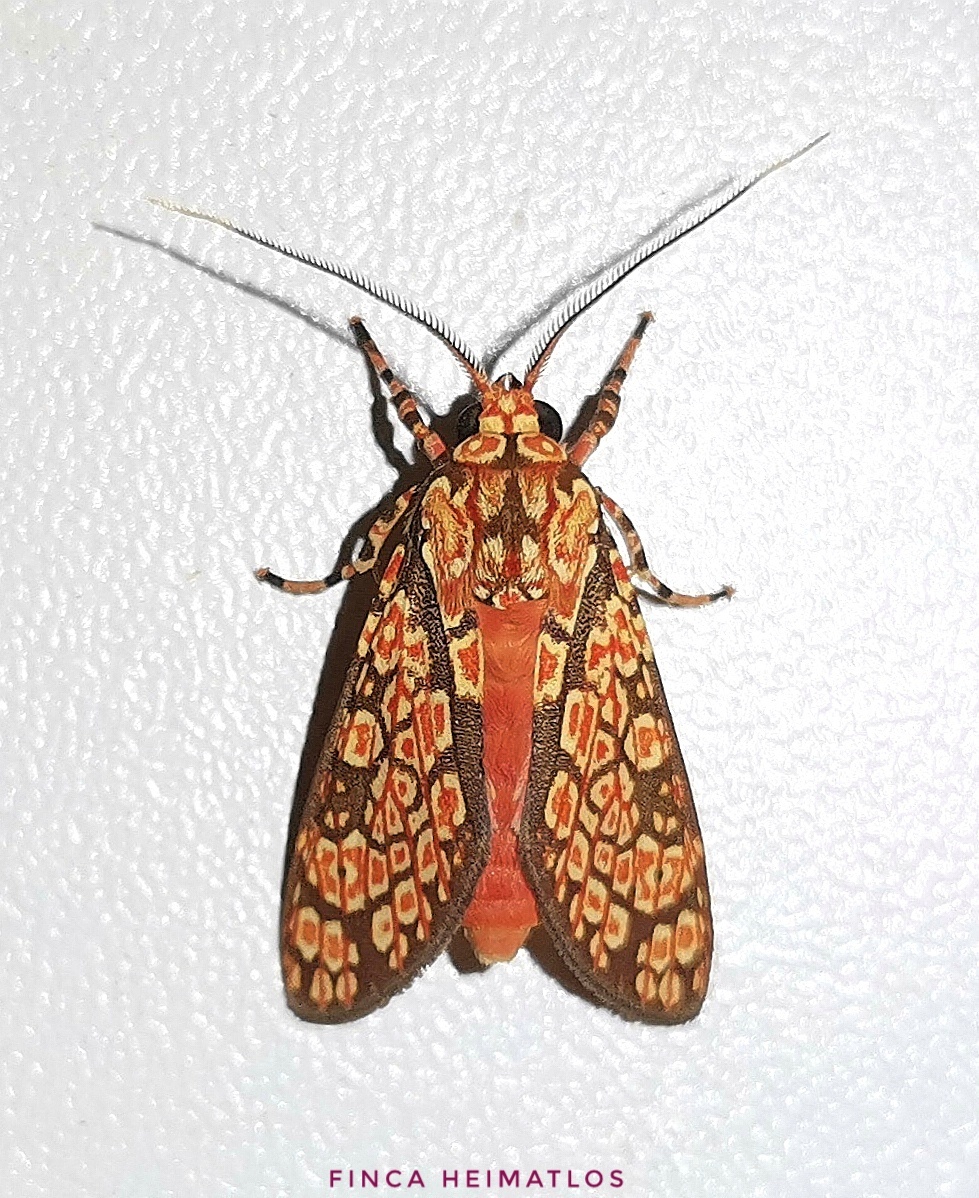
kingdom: Animalia
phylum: Arthropoda
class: Insecta
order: Lepidoptera
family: Erebidae
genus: Cresera
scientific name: Cresera optimus
